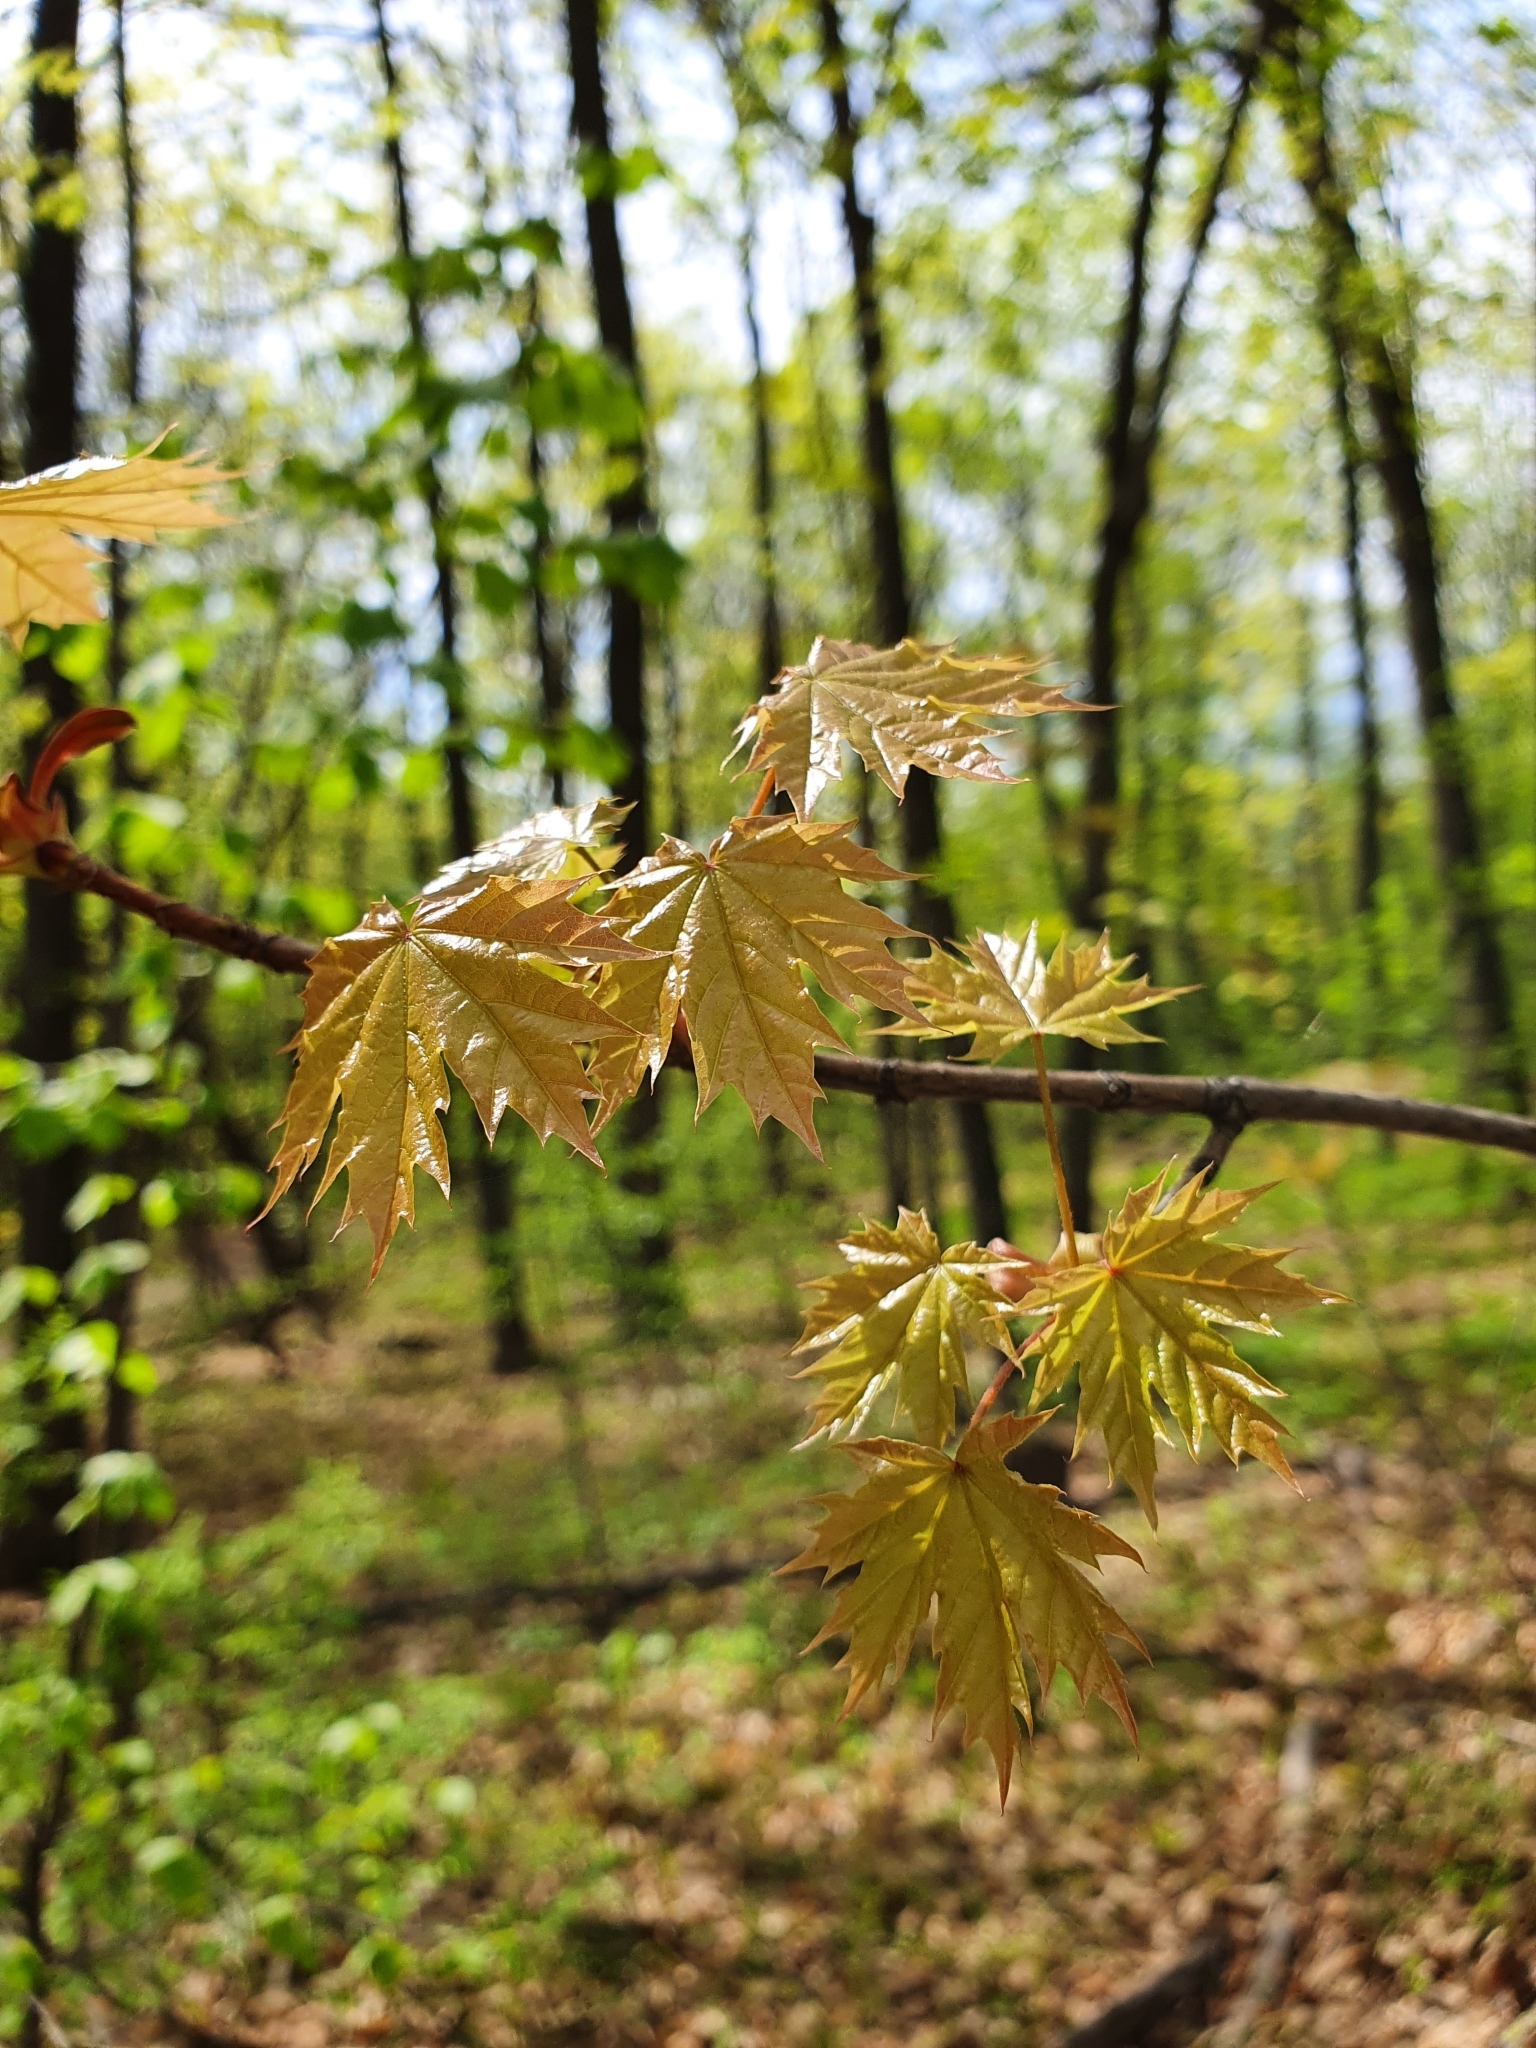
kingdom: Plantae
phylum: Tracheophyta
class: Magnoliopsida
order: Sapindales
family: Sapindaceae
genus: Acer
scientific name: Acer platanoides
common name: Norway maple
